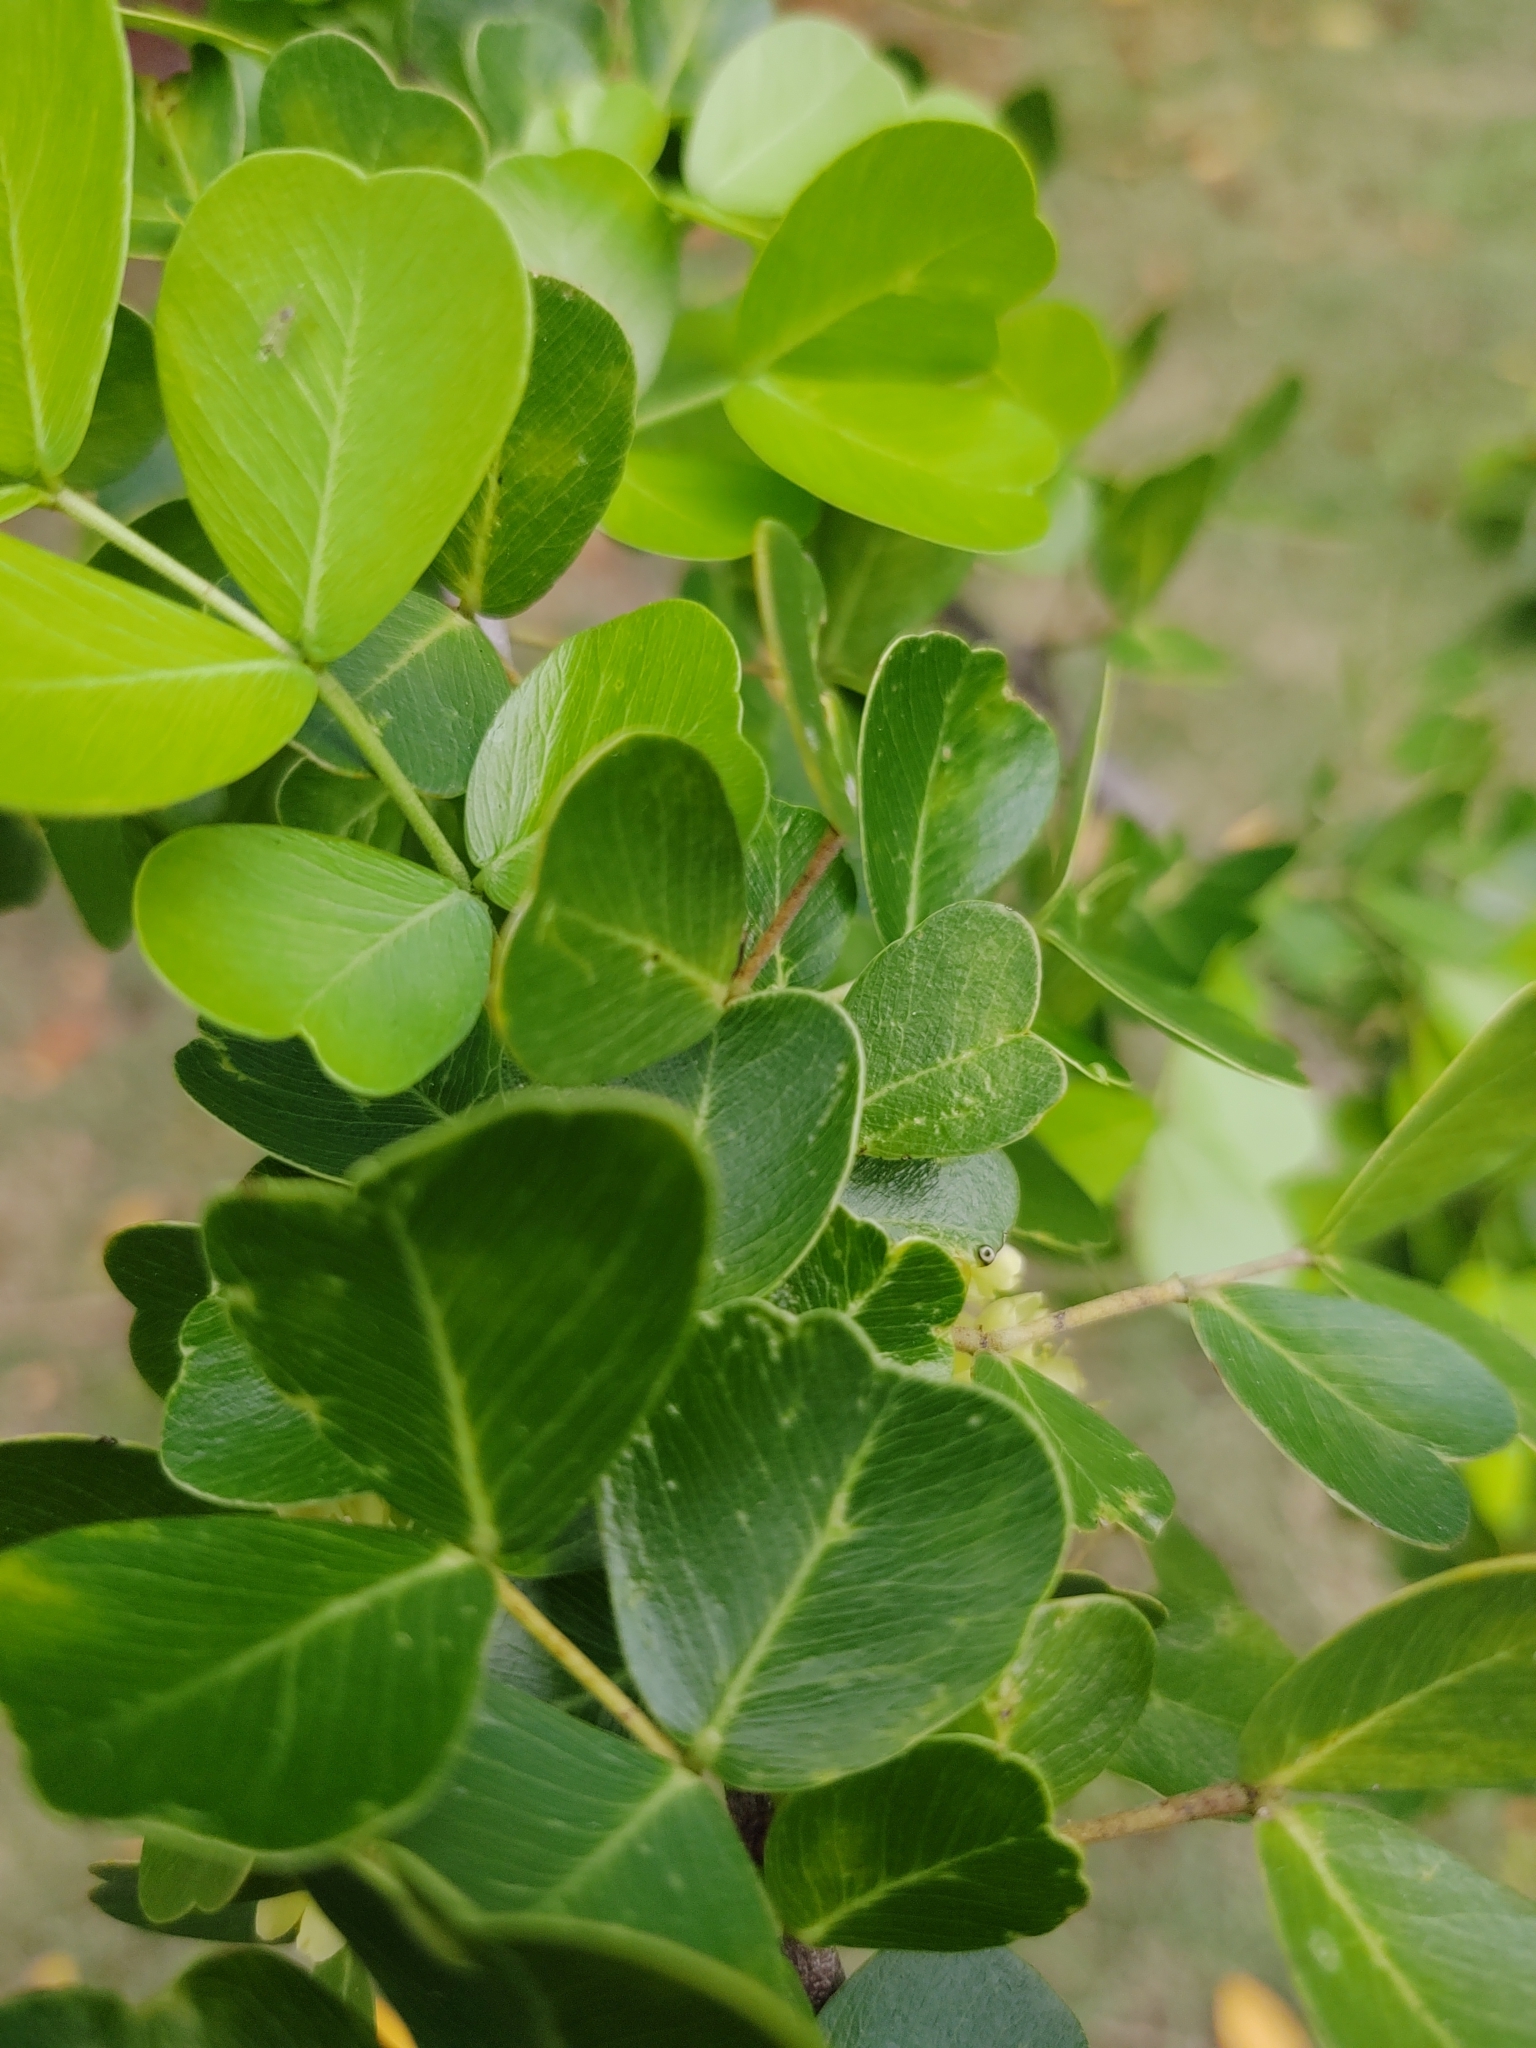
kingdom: Plantae
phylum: Tracheophyta
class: Magnoliopsida
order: Fabales
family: Fabaceae
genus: Haematoxylum
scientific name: Haematoxylum campechianum
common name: Logwood
